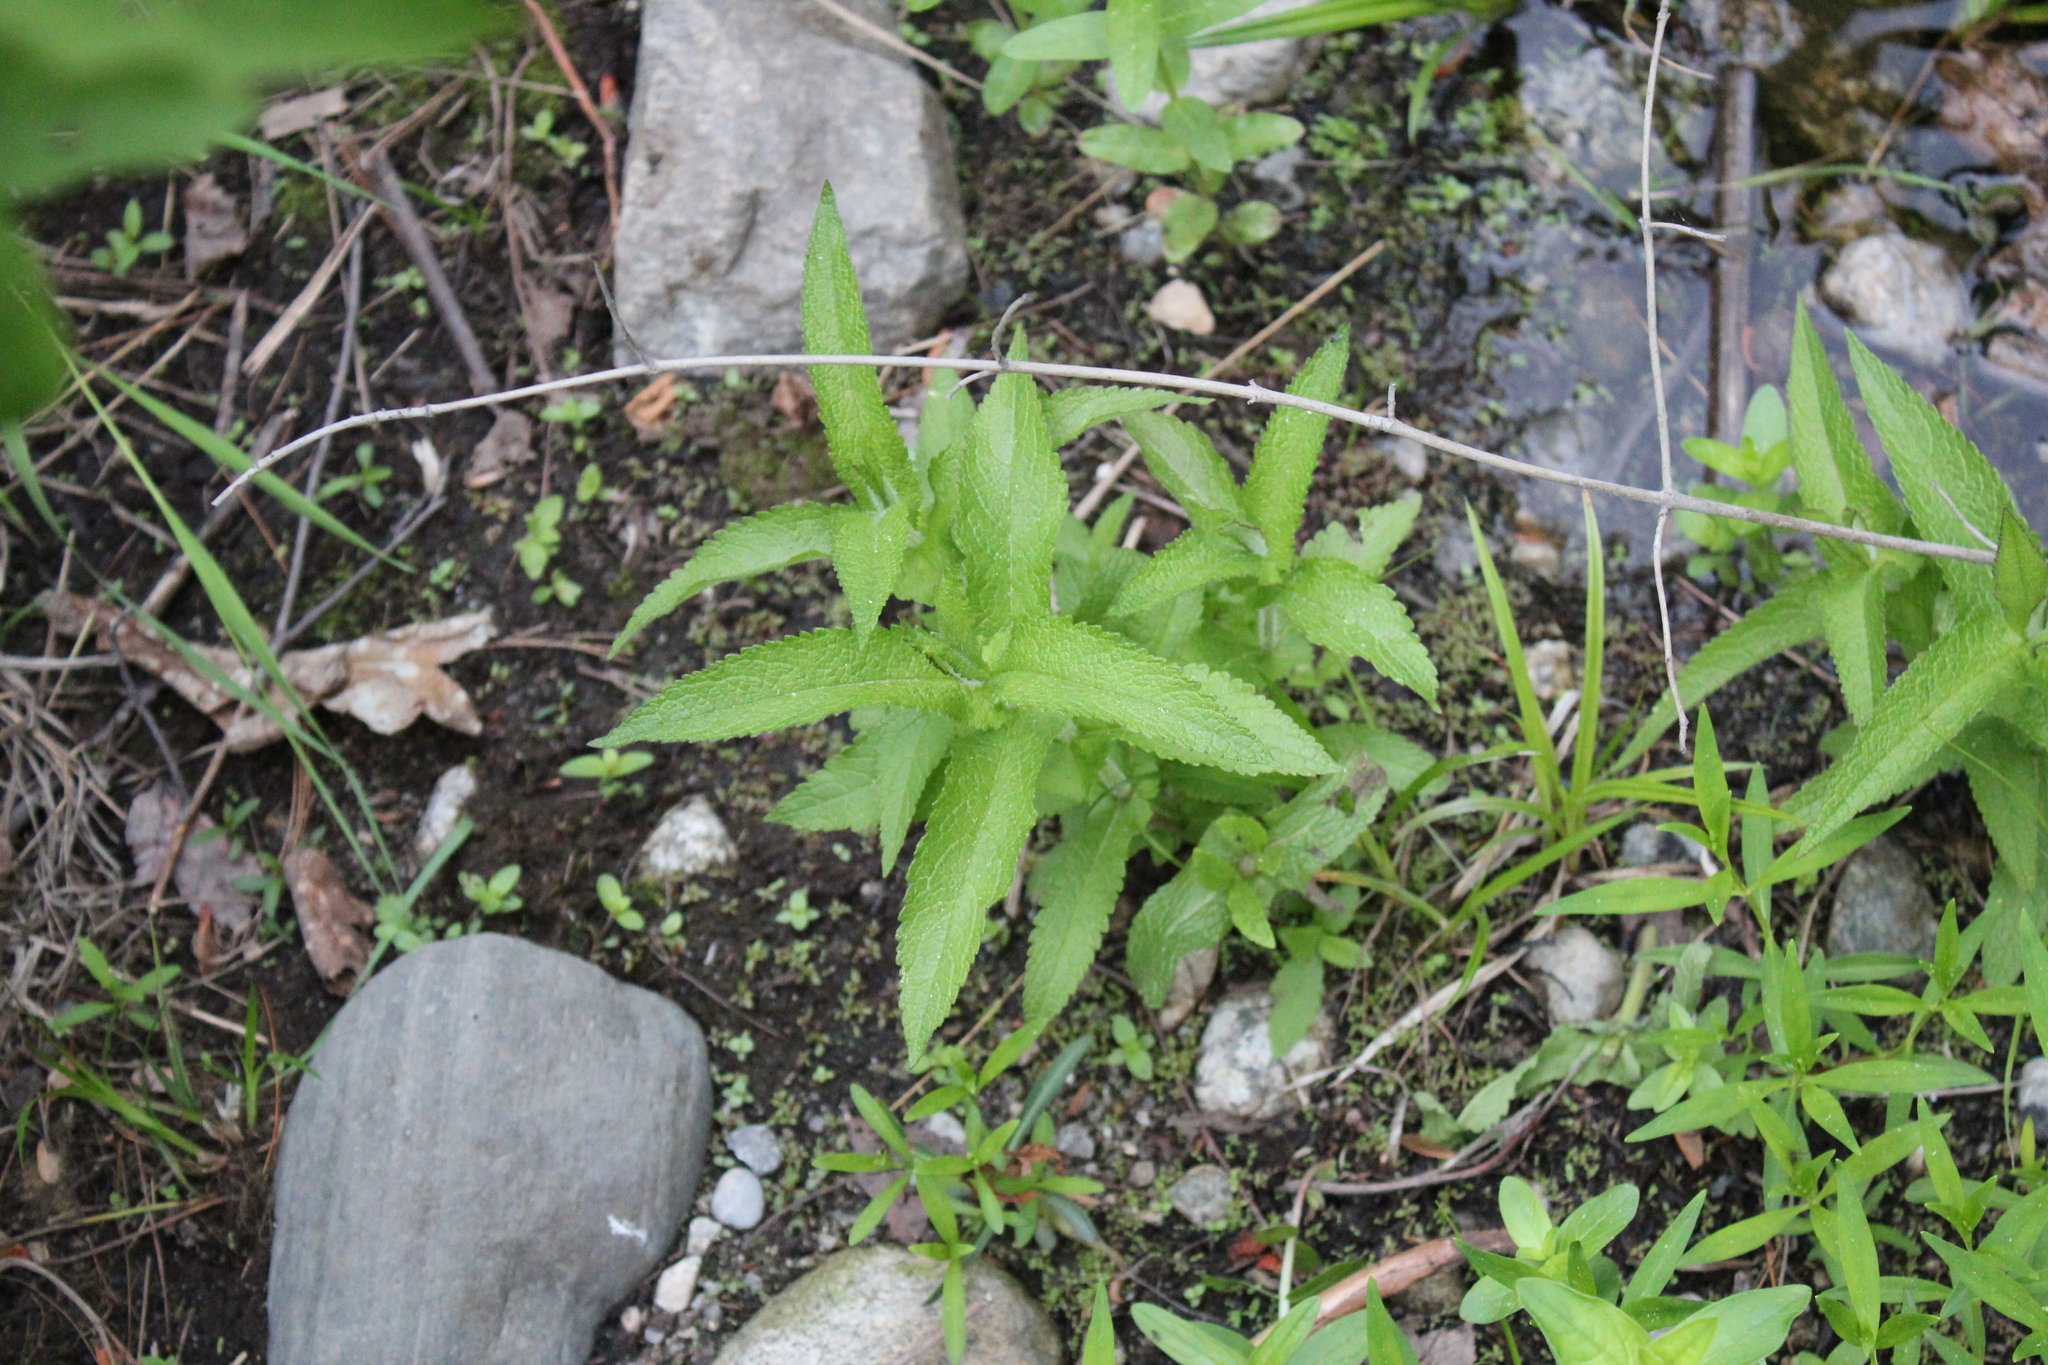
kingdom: Plantae
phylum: Tracheophyta
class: Magnoliopsida
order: Asterales
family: Asteraceae
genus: Eupatorium
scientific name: Eupatorium perfoliatum
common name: Boneset
